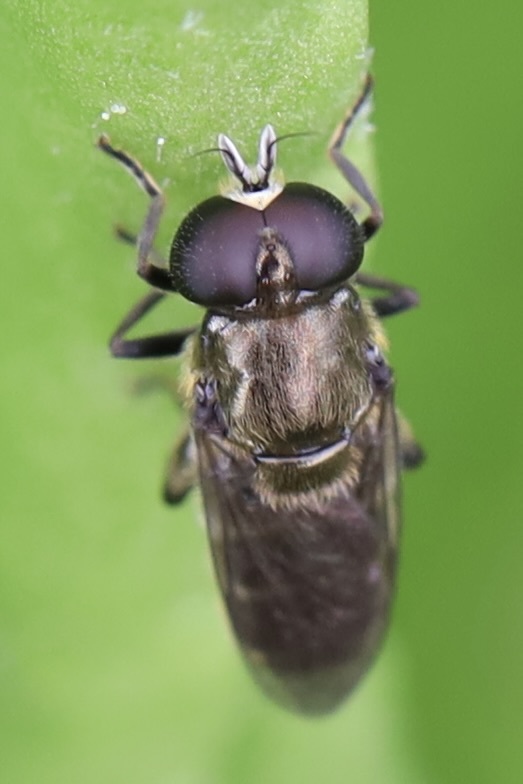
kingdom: Animalia
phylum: Arthropoda
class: Insecta
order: Diptera
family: Syrphidae
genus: Eumerus
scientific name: Eumerus
